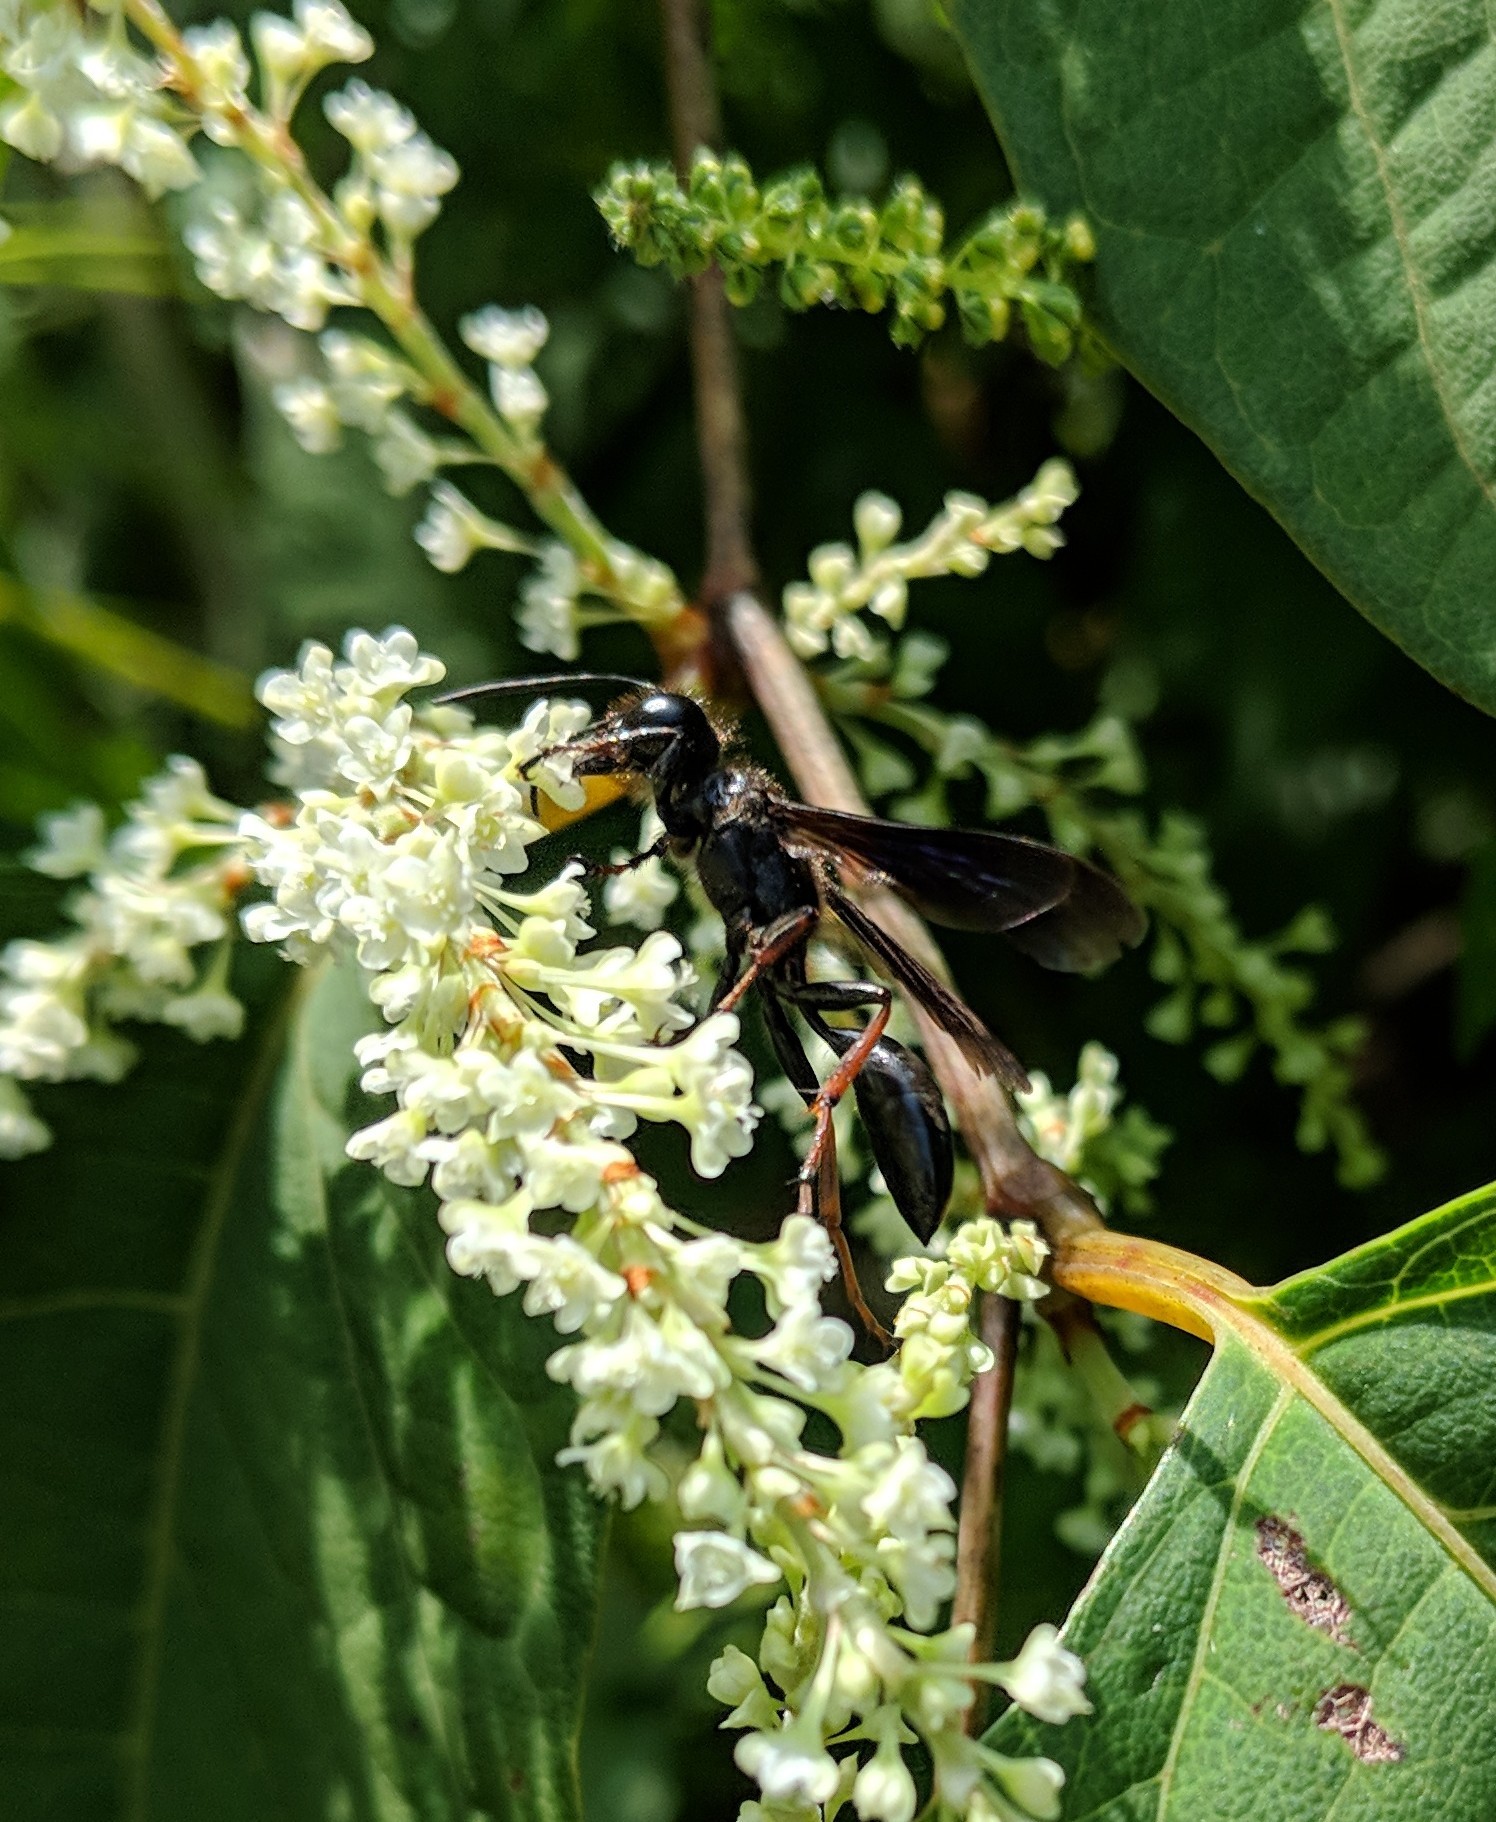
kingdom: Animalia
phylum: Arthropoda
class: Insecta
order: Hymenoptera
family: Sphecidae
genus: Isodontia
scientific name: Isodontia auripes
